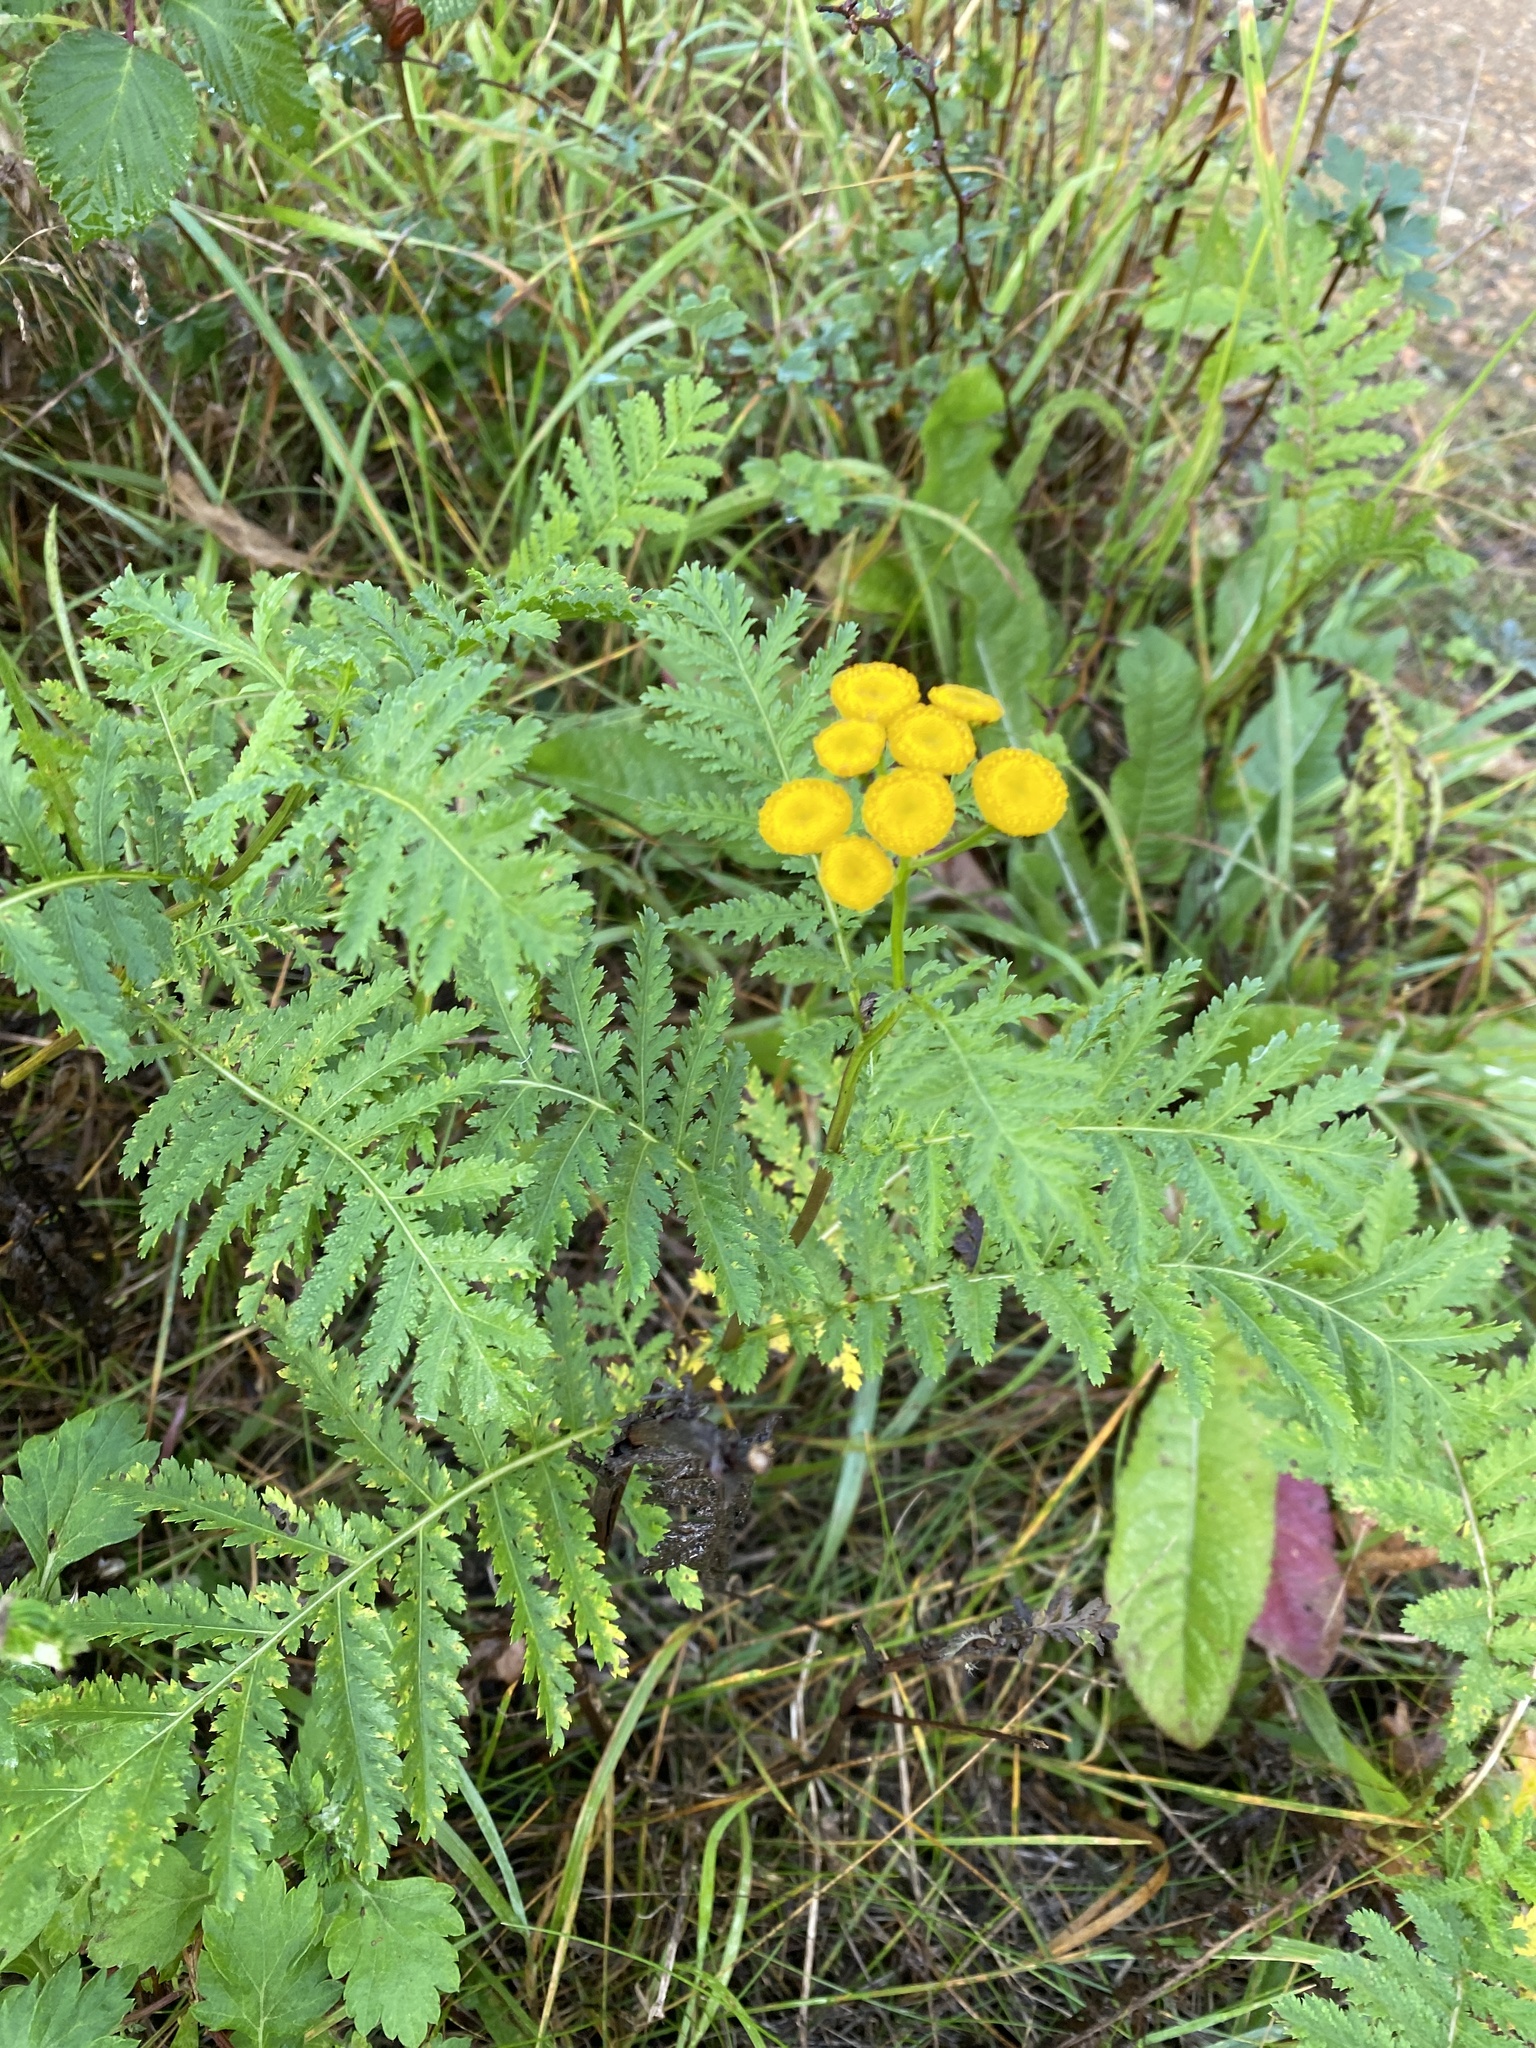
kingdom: Plantae
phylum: Tracheophyta
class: Magnoliopsida
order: Asterales
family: Asteraceae
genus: Tanacetum
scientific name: Tanacetum vulgare
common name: Common tansy
